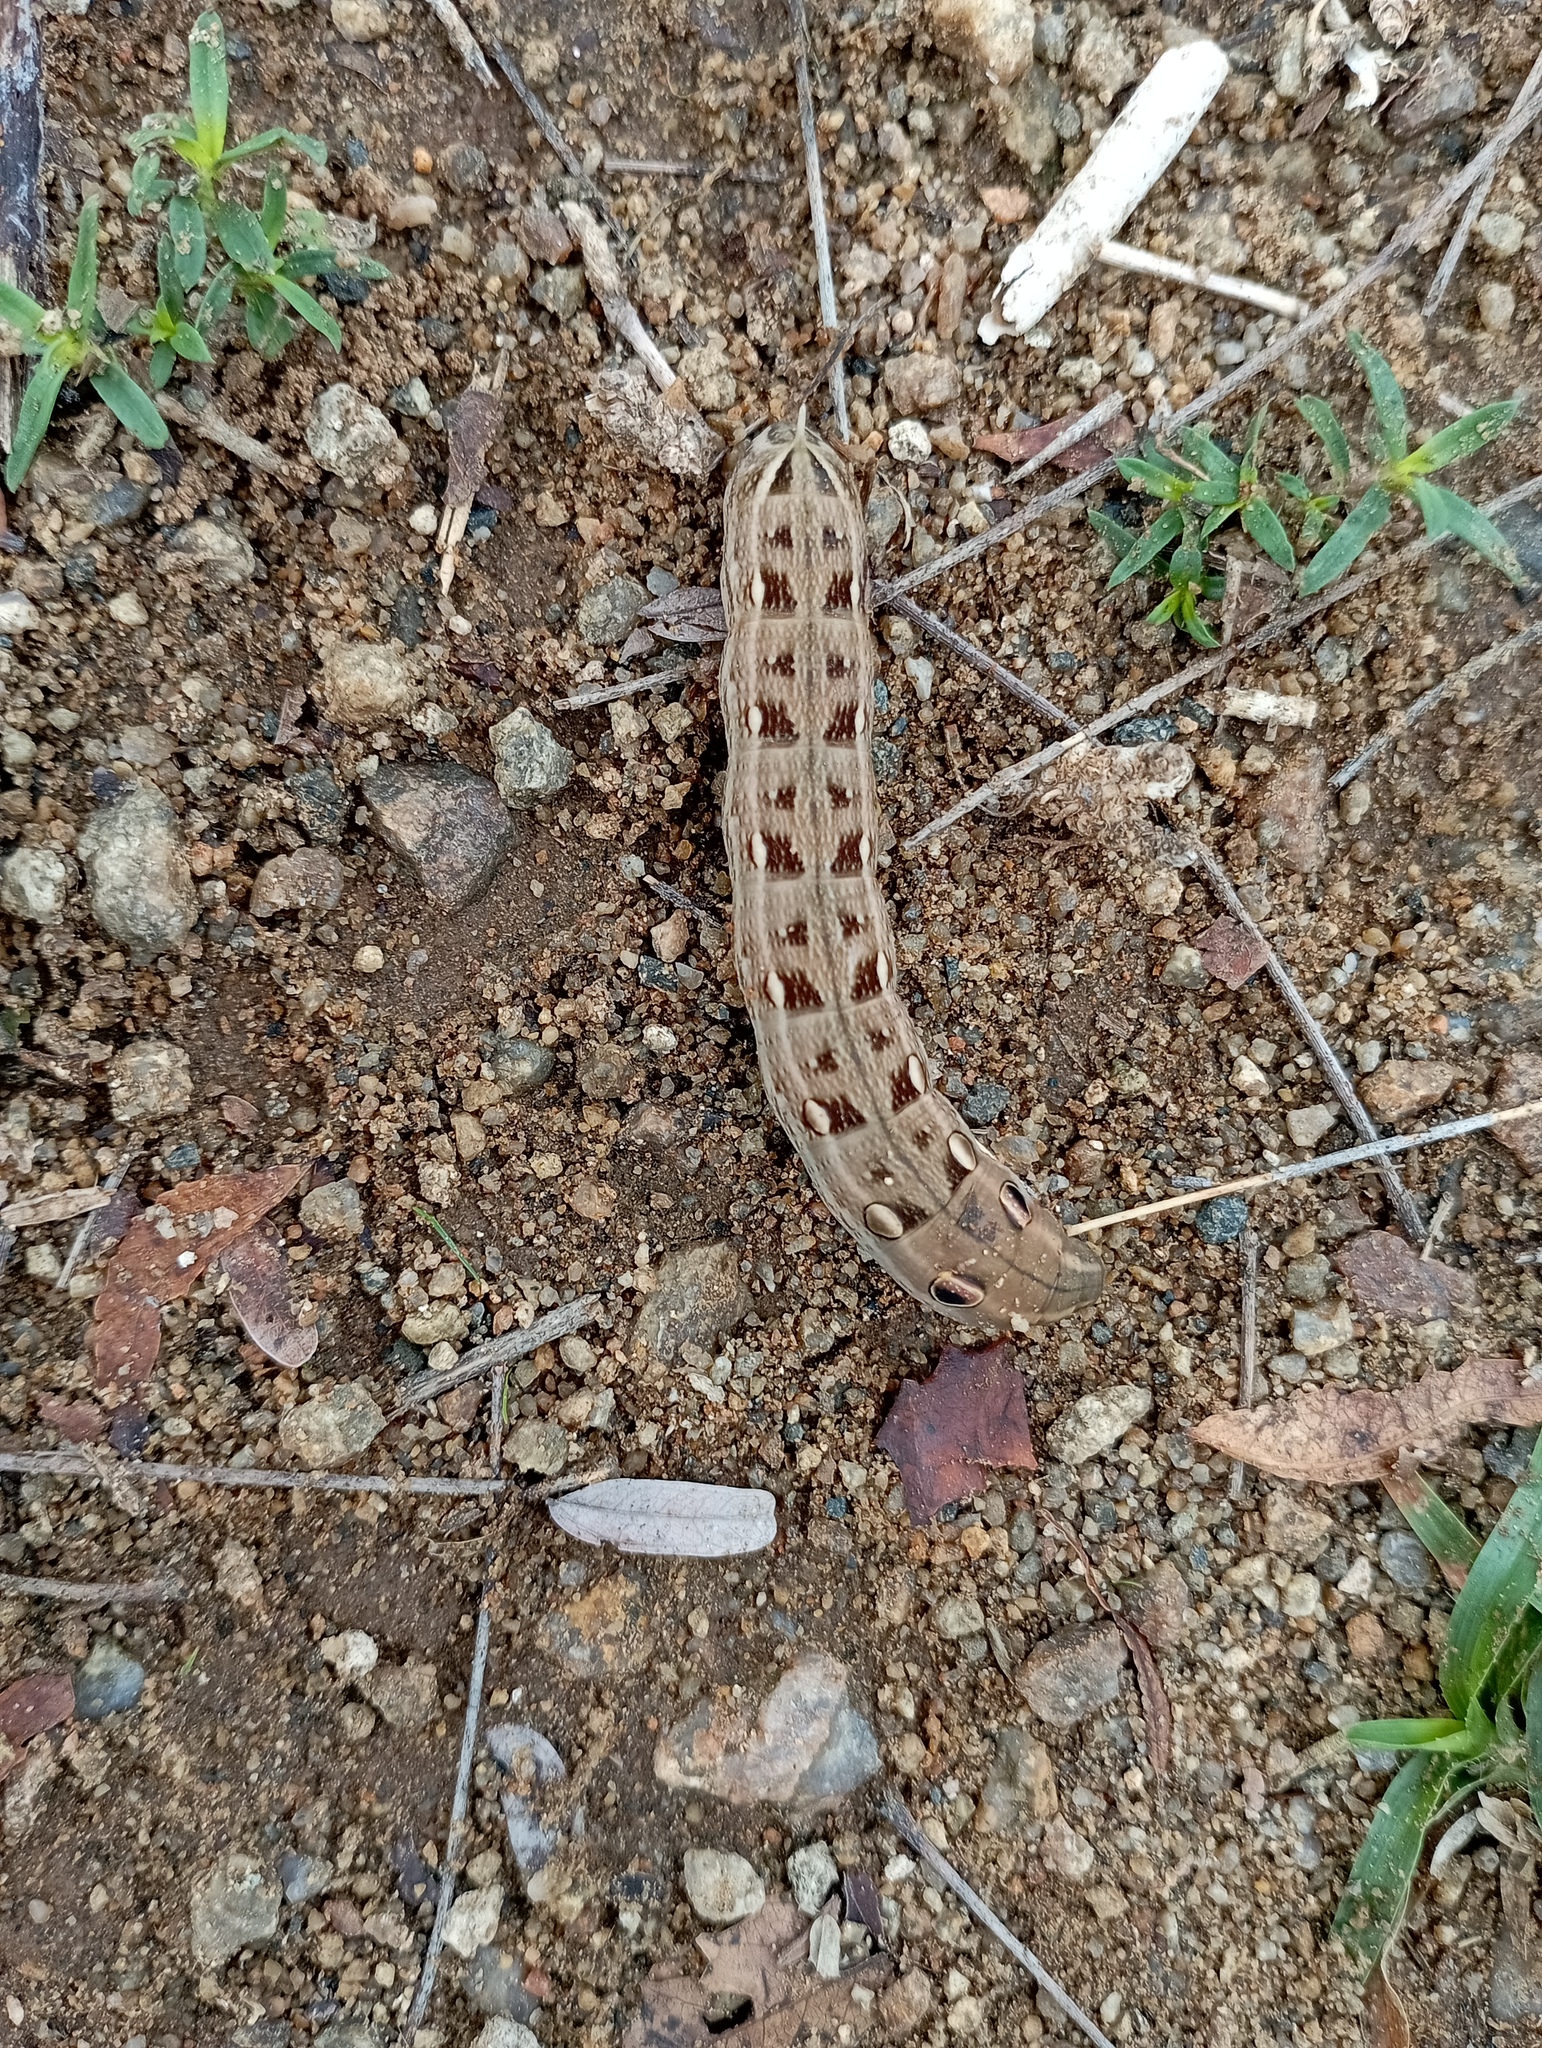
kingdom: Animalia
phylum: Arthropoda
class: Insecta
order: Lepidoptera
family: Sphingidae
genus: Hippotion
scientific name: Hippotion rosetta
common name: Vine hawk moth
